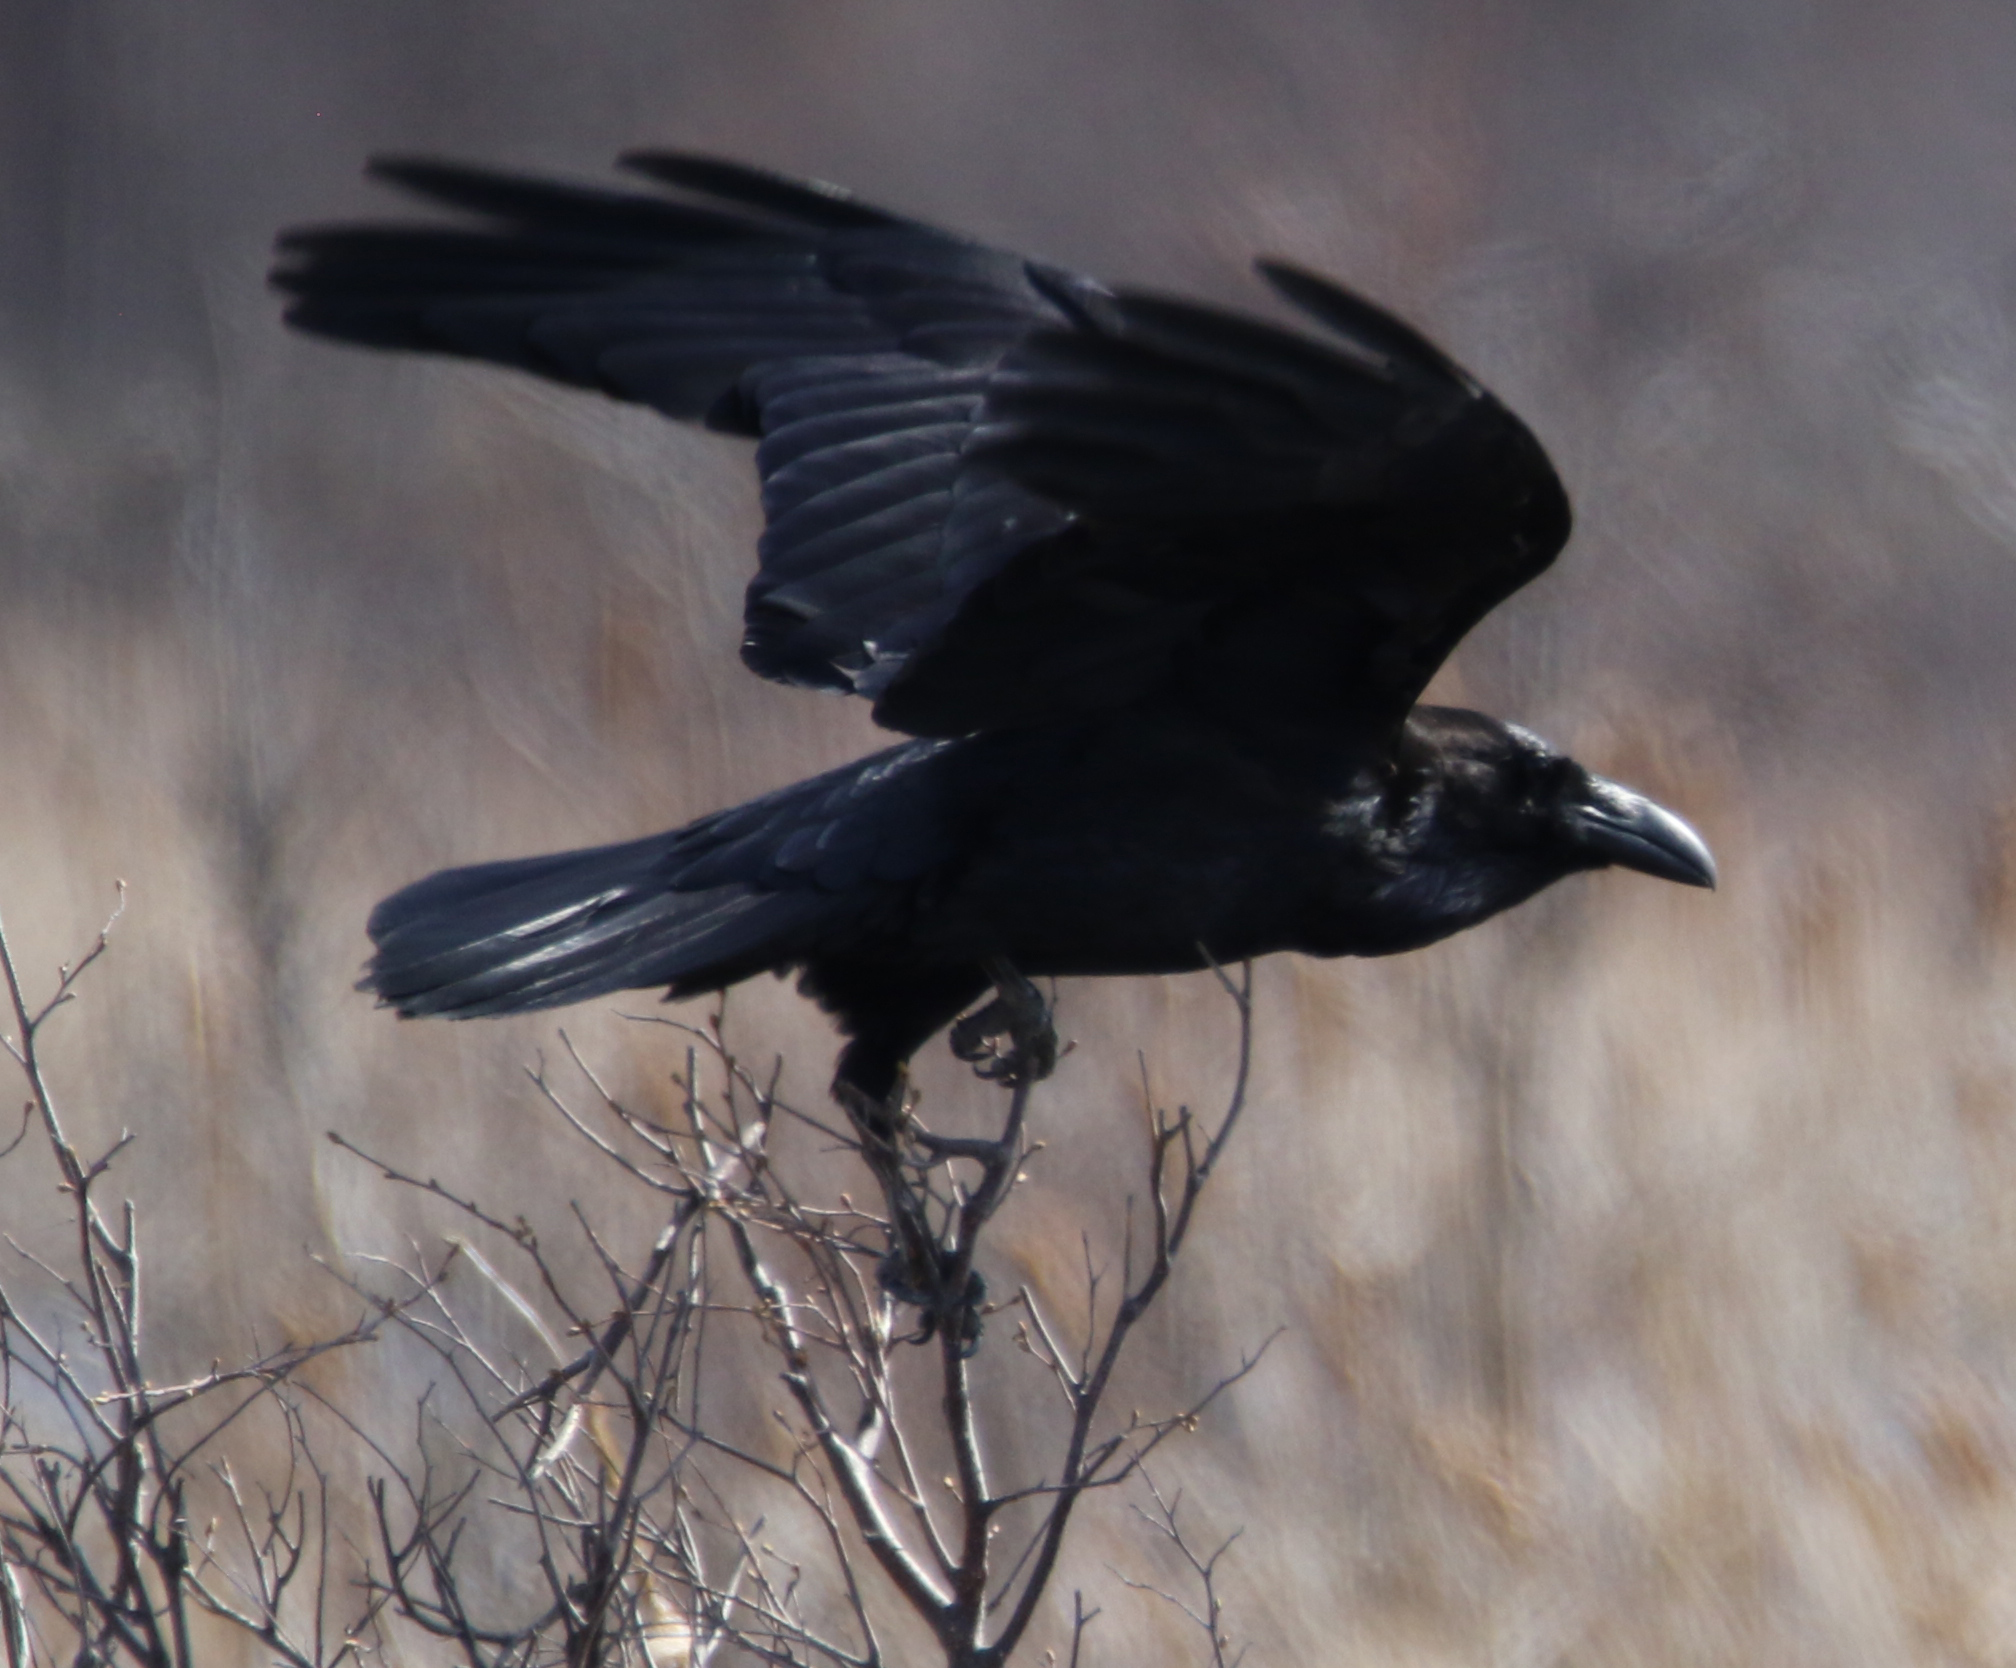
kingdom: Animalia
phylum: Chordata
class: Aves
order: Passeriformes
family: Corvidae
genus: Corvus
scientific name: Corvus corax
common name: Common raven
